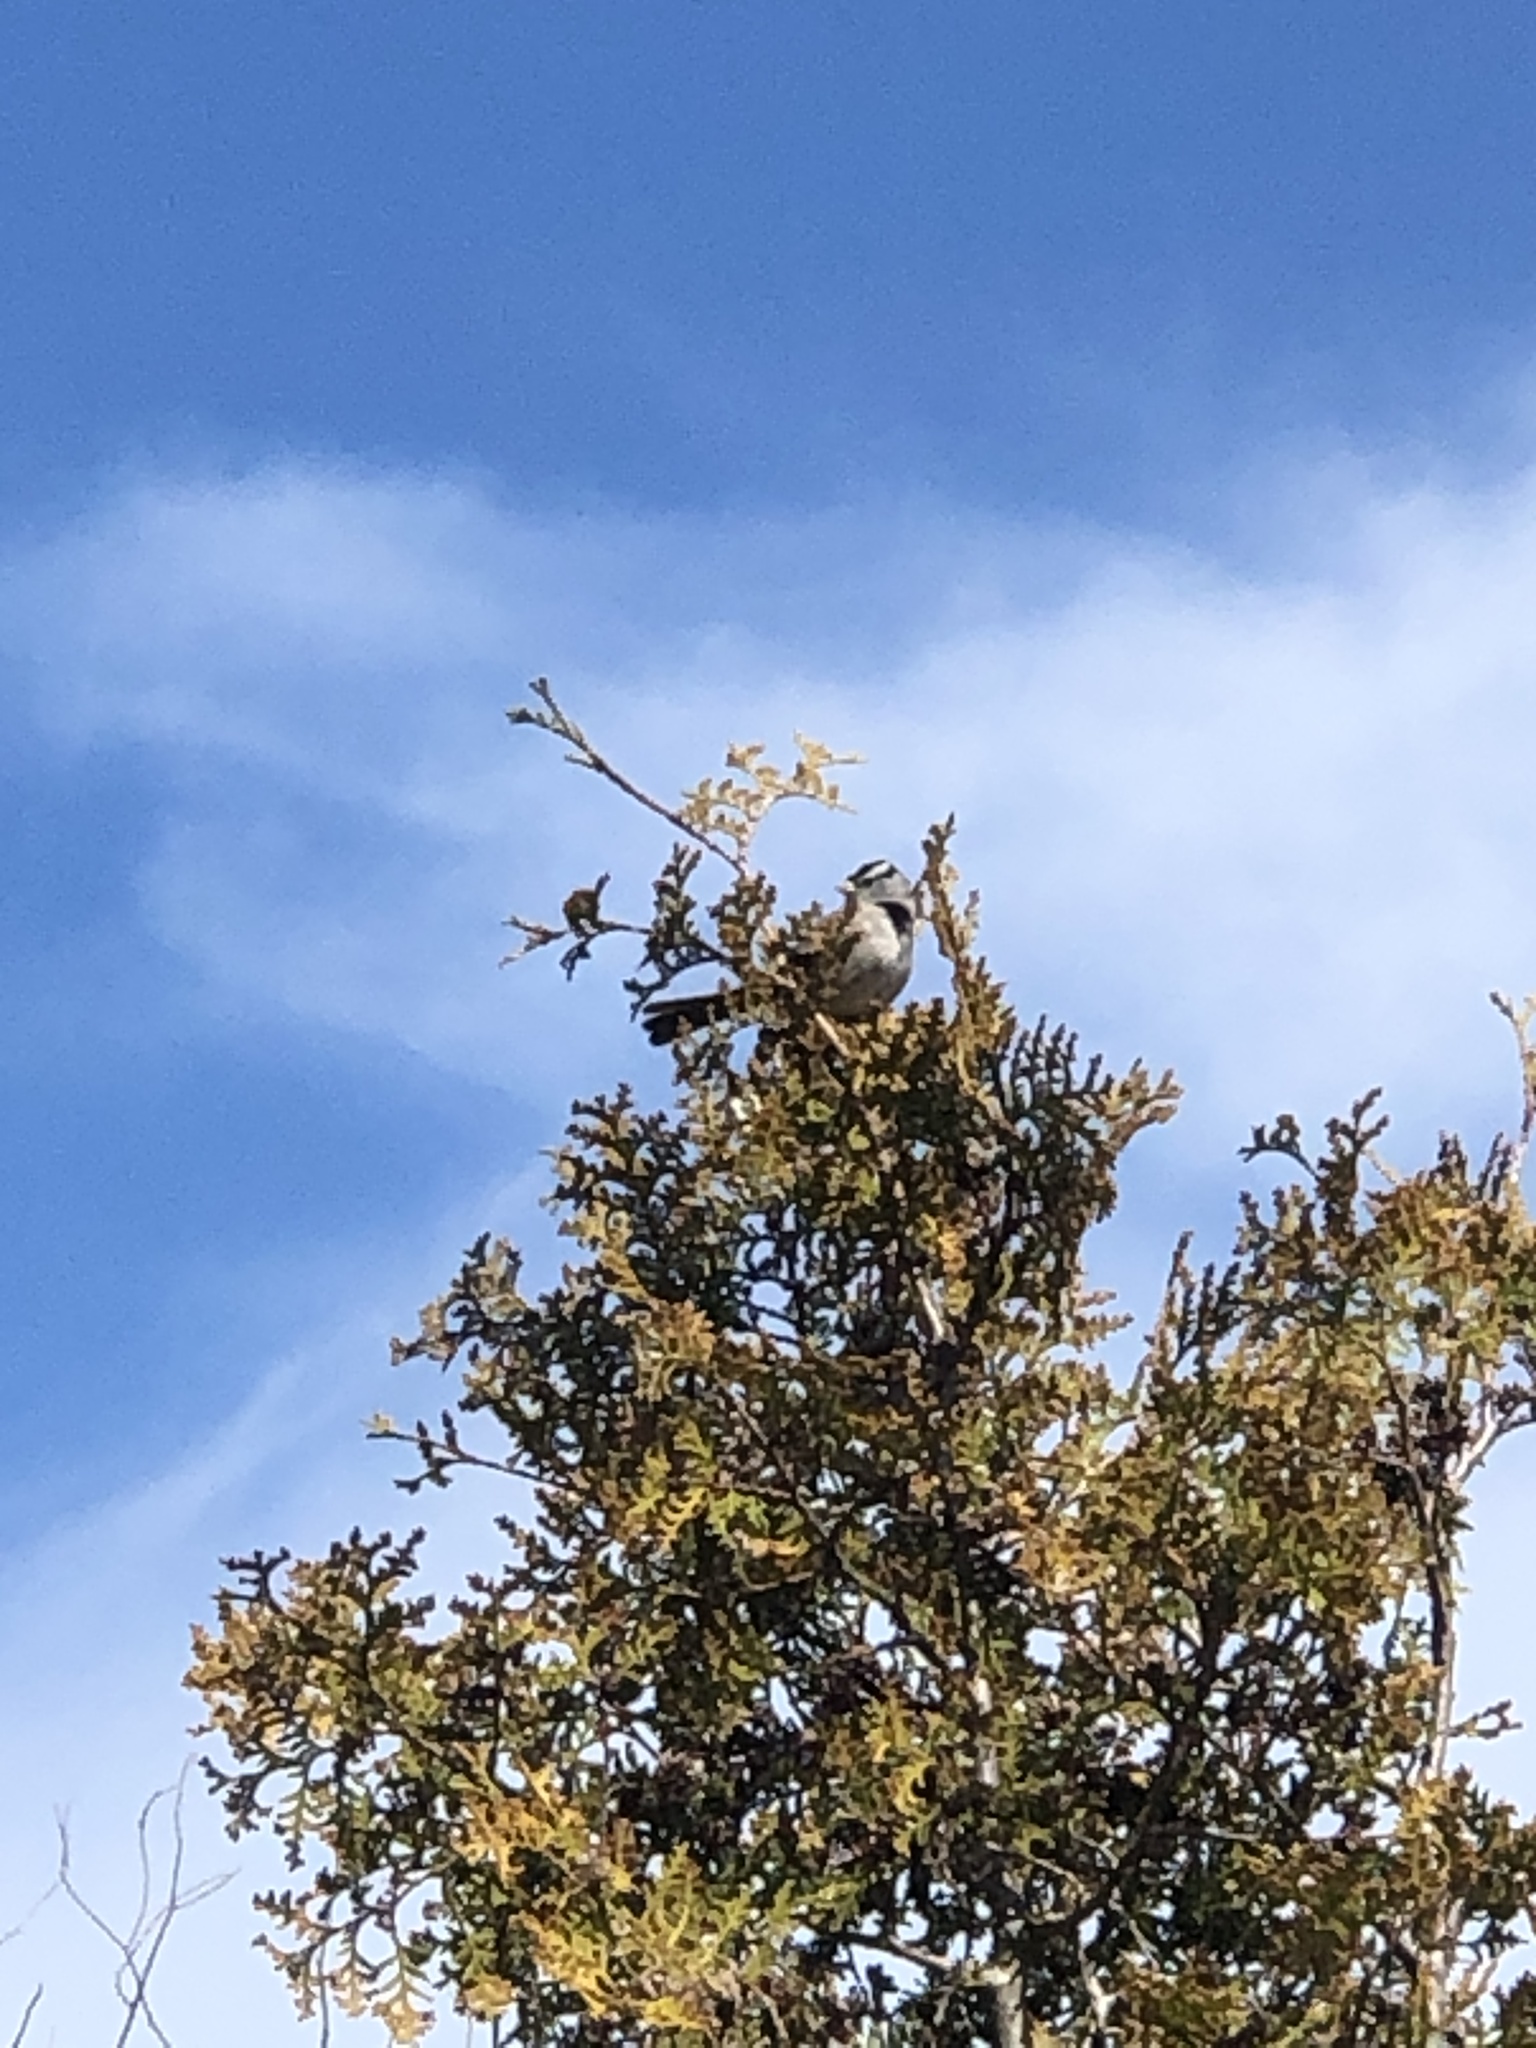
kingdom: Animalia
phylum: Chordata
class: Aves
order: Passeriformes
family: Passerellidae
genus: Zonotrichia
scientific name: Zonotrichia leucophrys
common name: White-crowned sparrow
